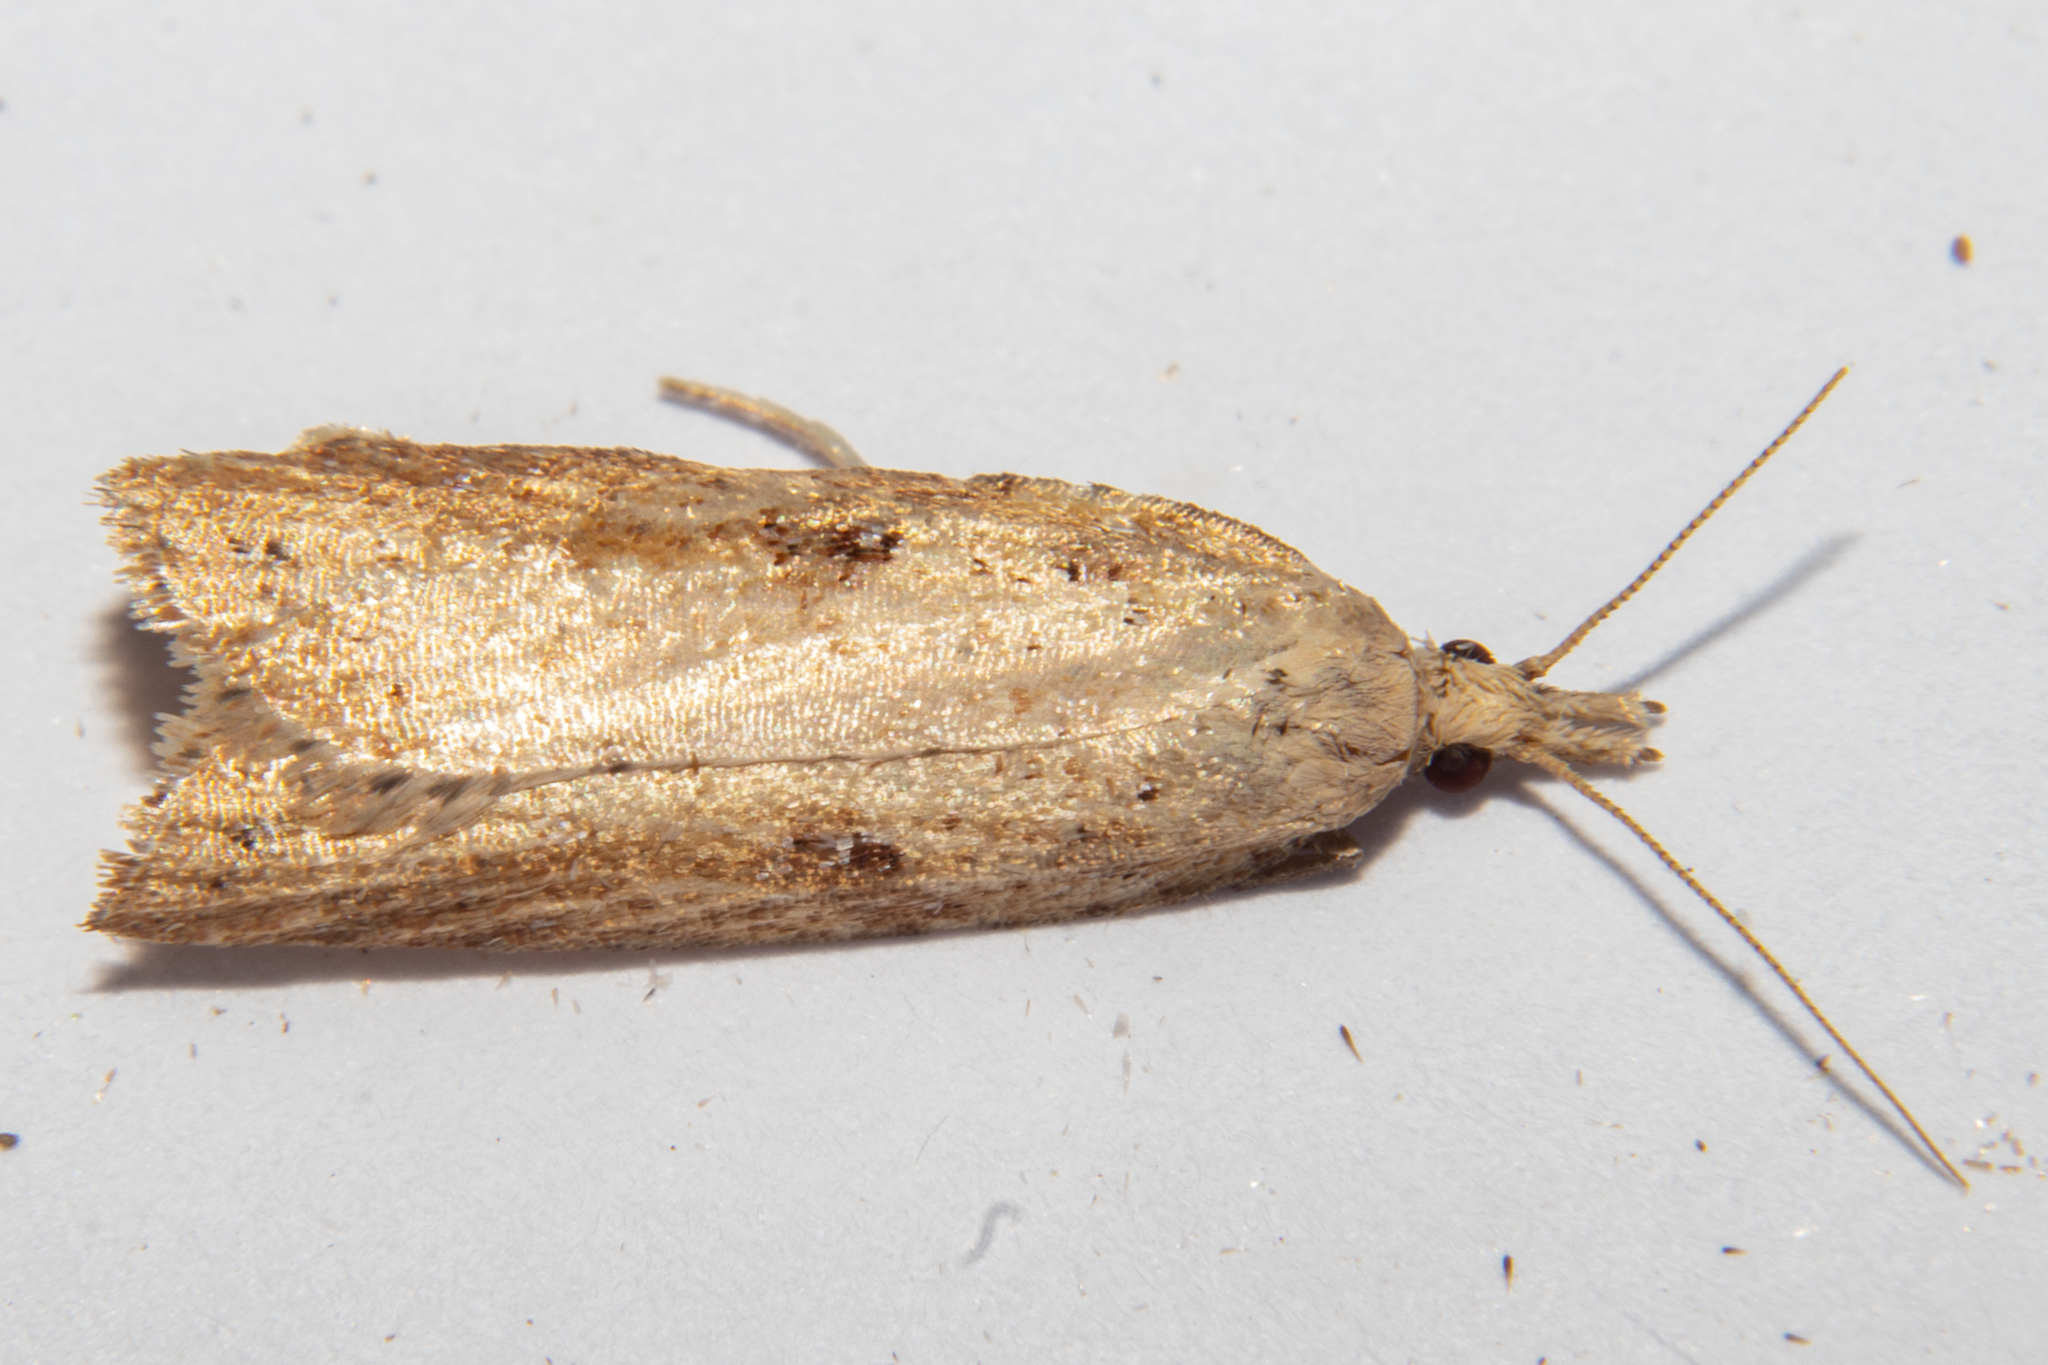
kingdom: Animalia
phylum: Arthropoda
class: Insecta
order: Lepidoptera
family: Tortricidae
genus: Apoctena
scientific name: Apoctena persecta
